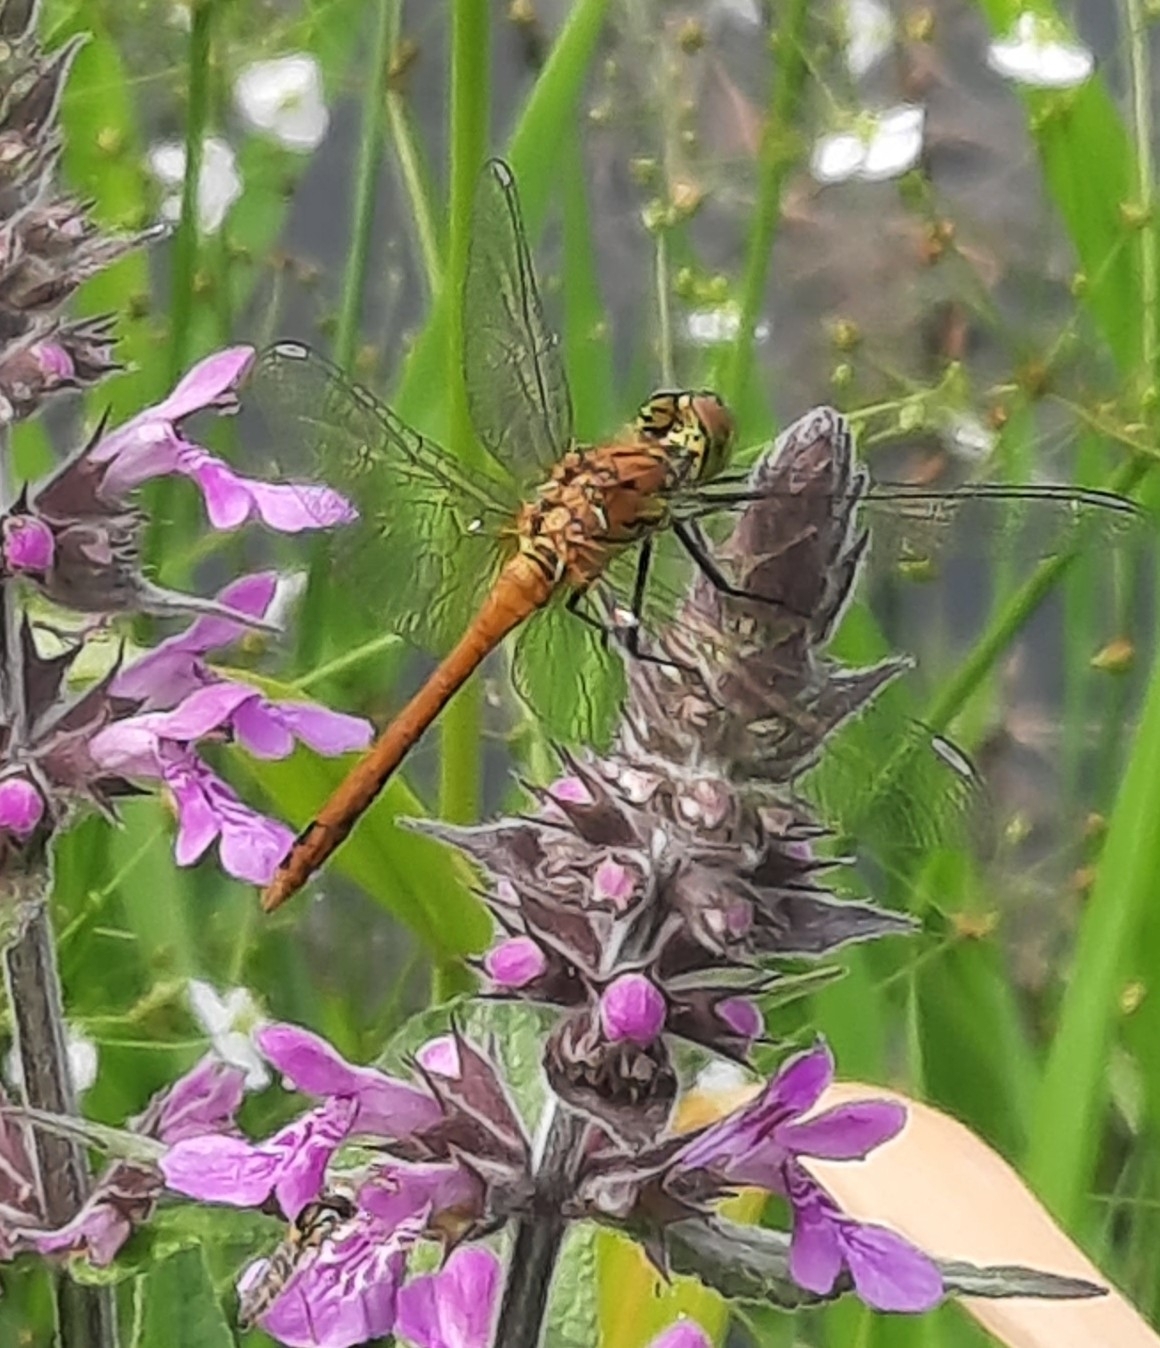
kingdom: Animalia
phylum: Arthropoda
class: Insecta
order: Odonata
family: Libellulidae
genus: Sympetrum
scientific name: Sympetrum sanguineum
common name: Ruddy darter
